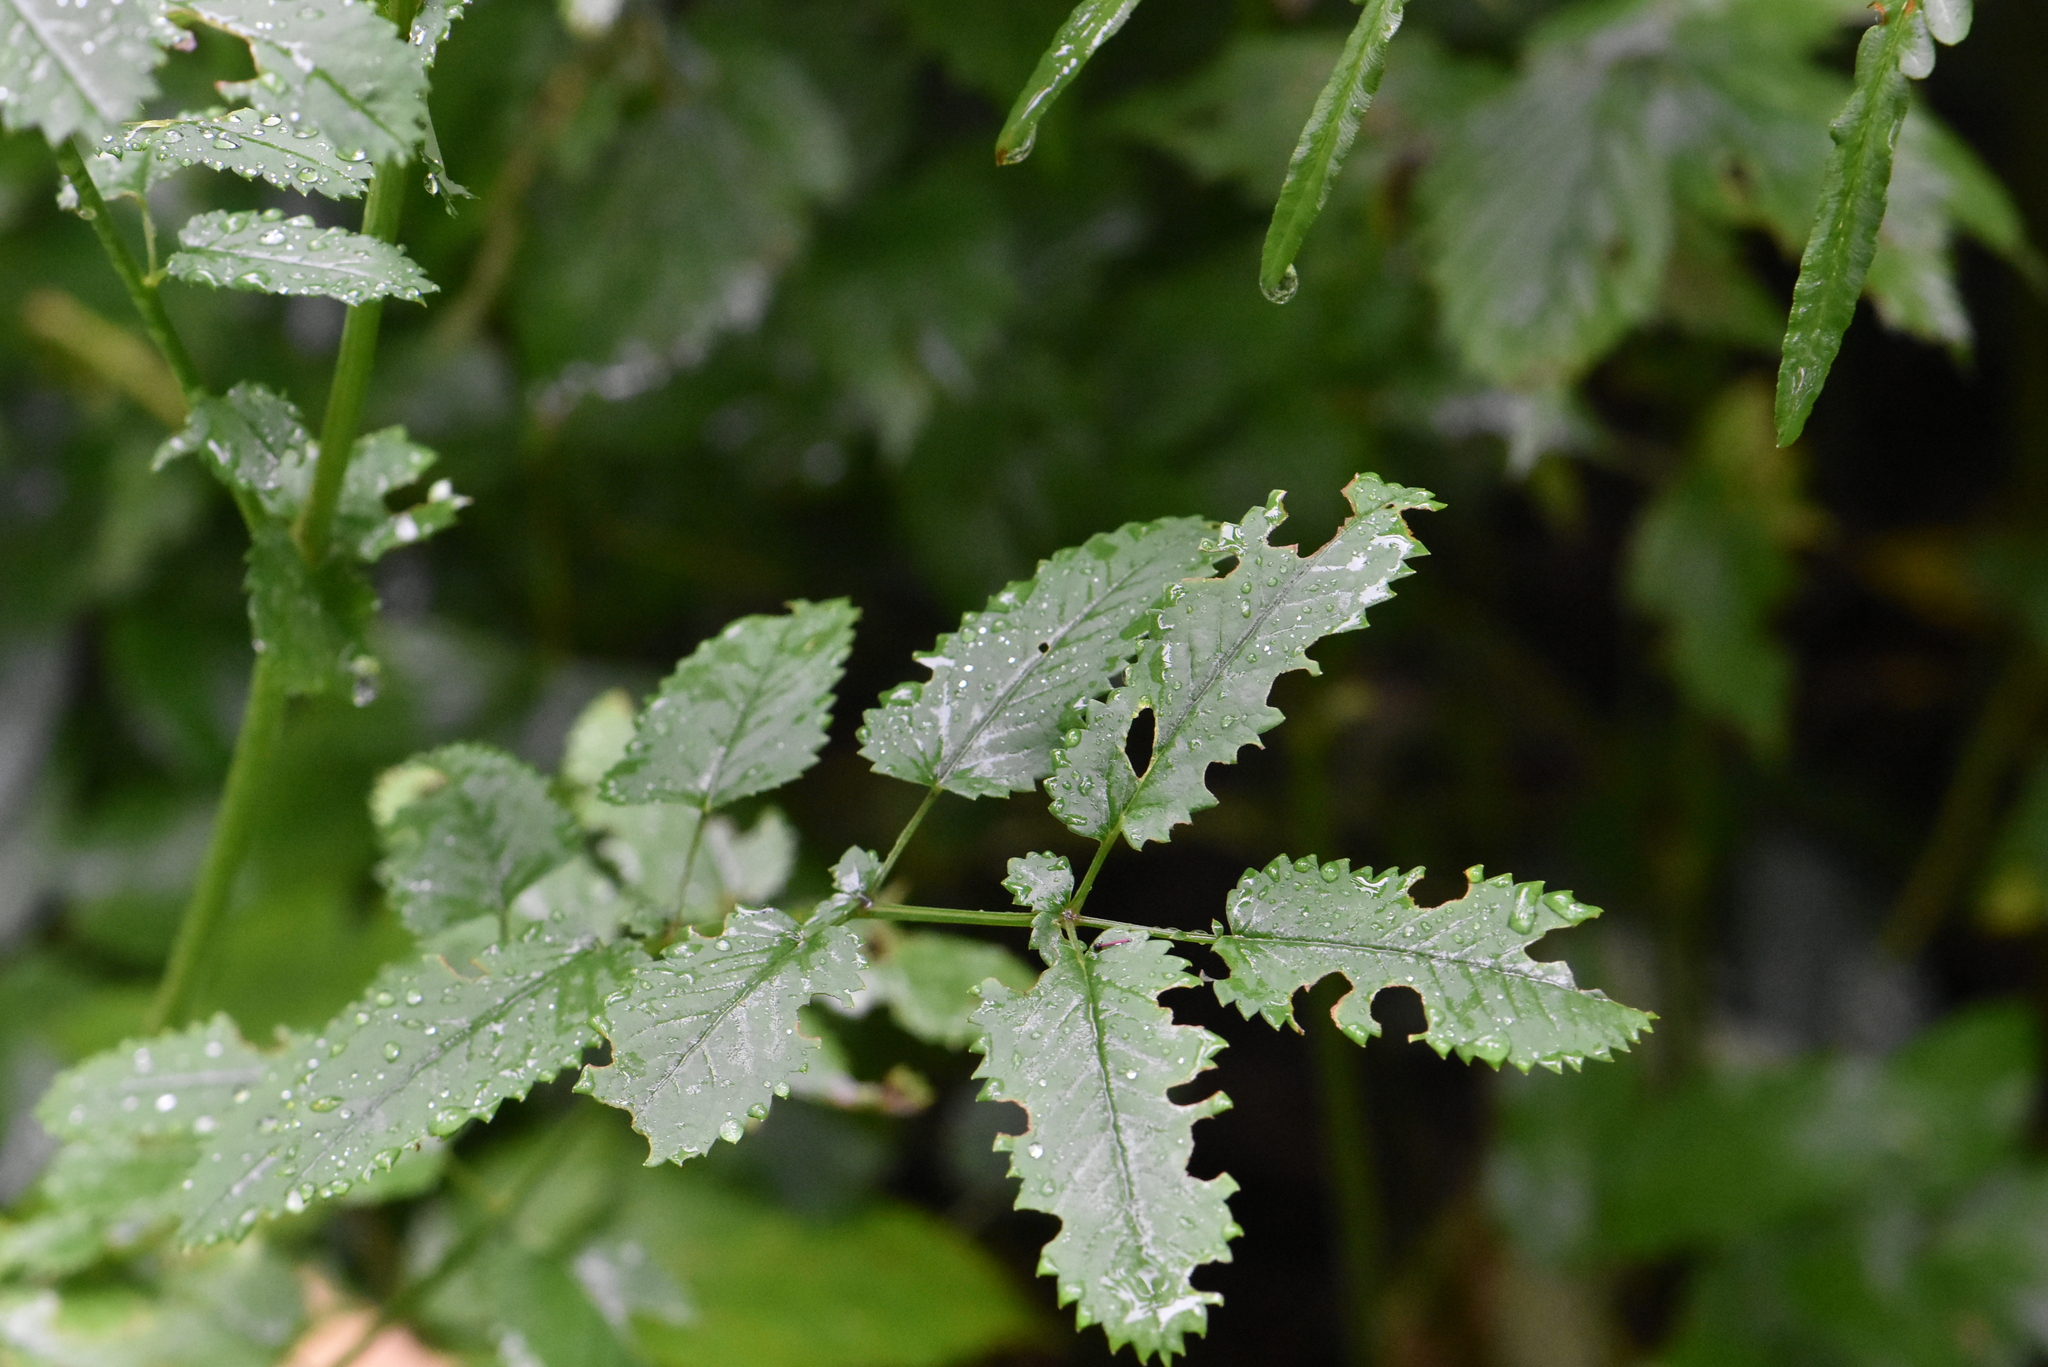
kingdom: Plantae
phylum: Tracheophyta
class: Magnoliopsida
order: Rosales
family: Rosaceae
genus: Sanguisorba
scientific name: Sanguisorba officinalis
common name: Great burnet
